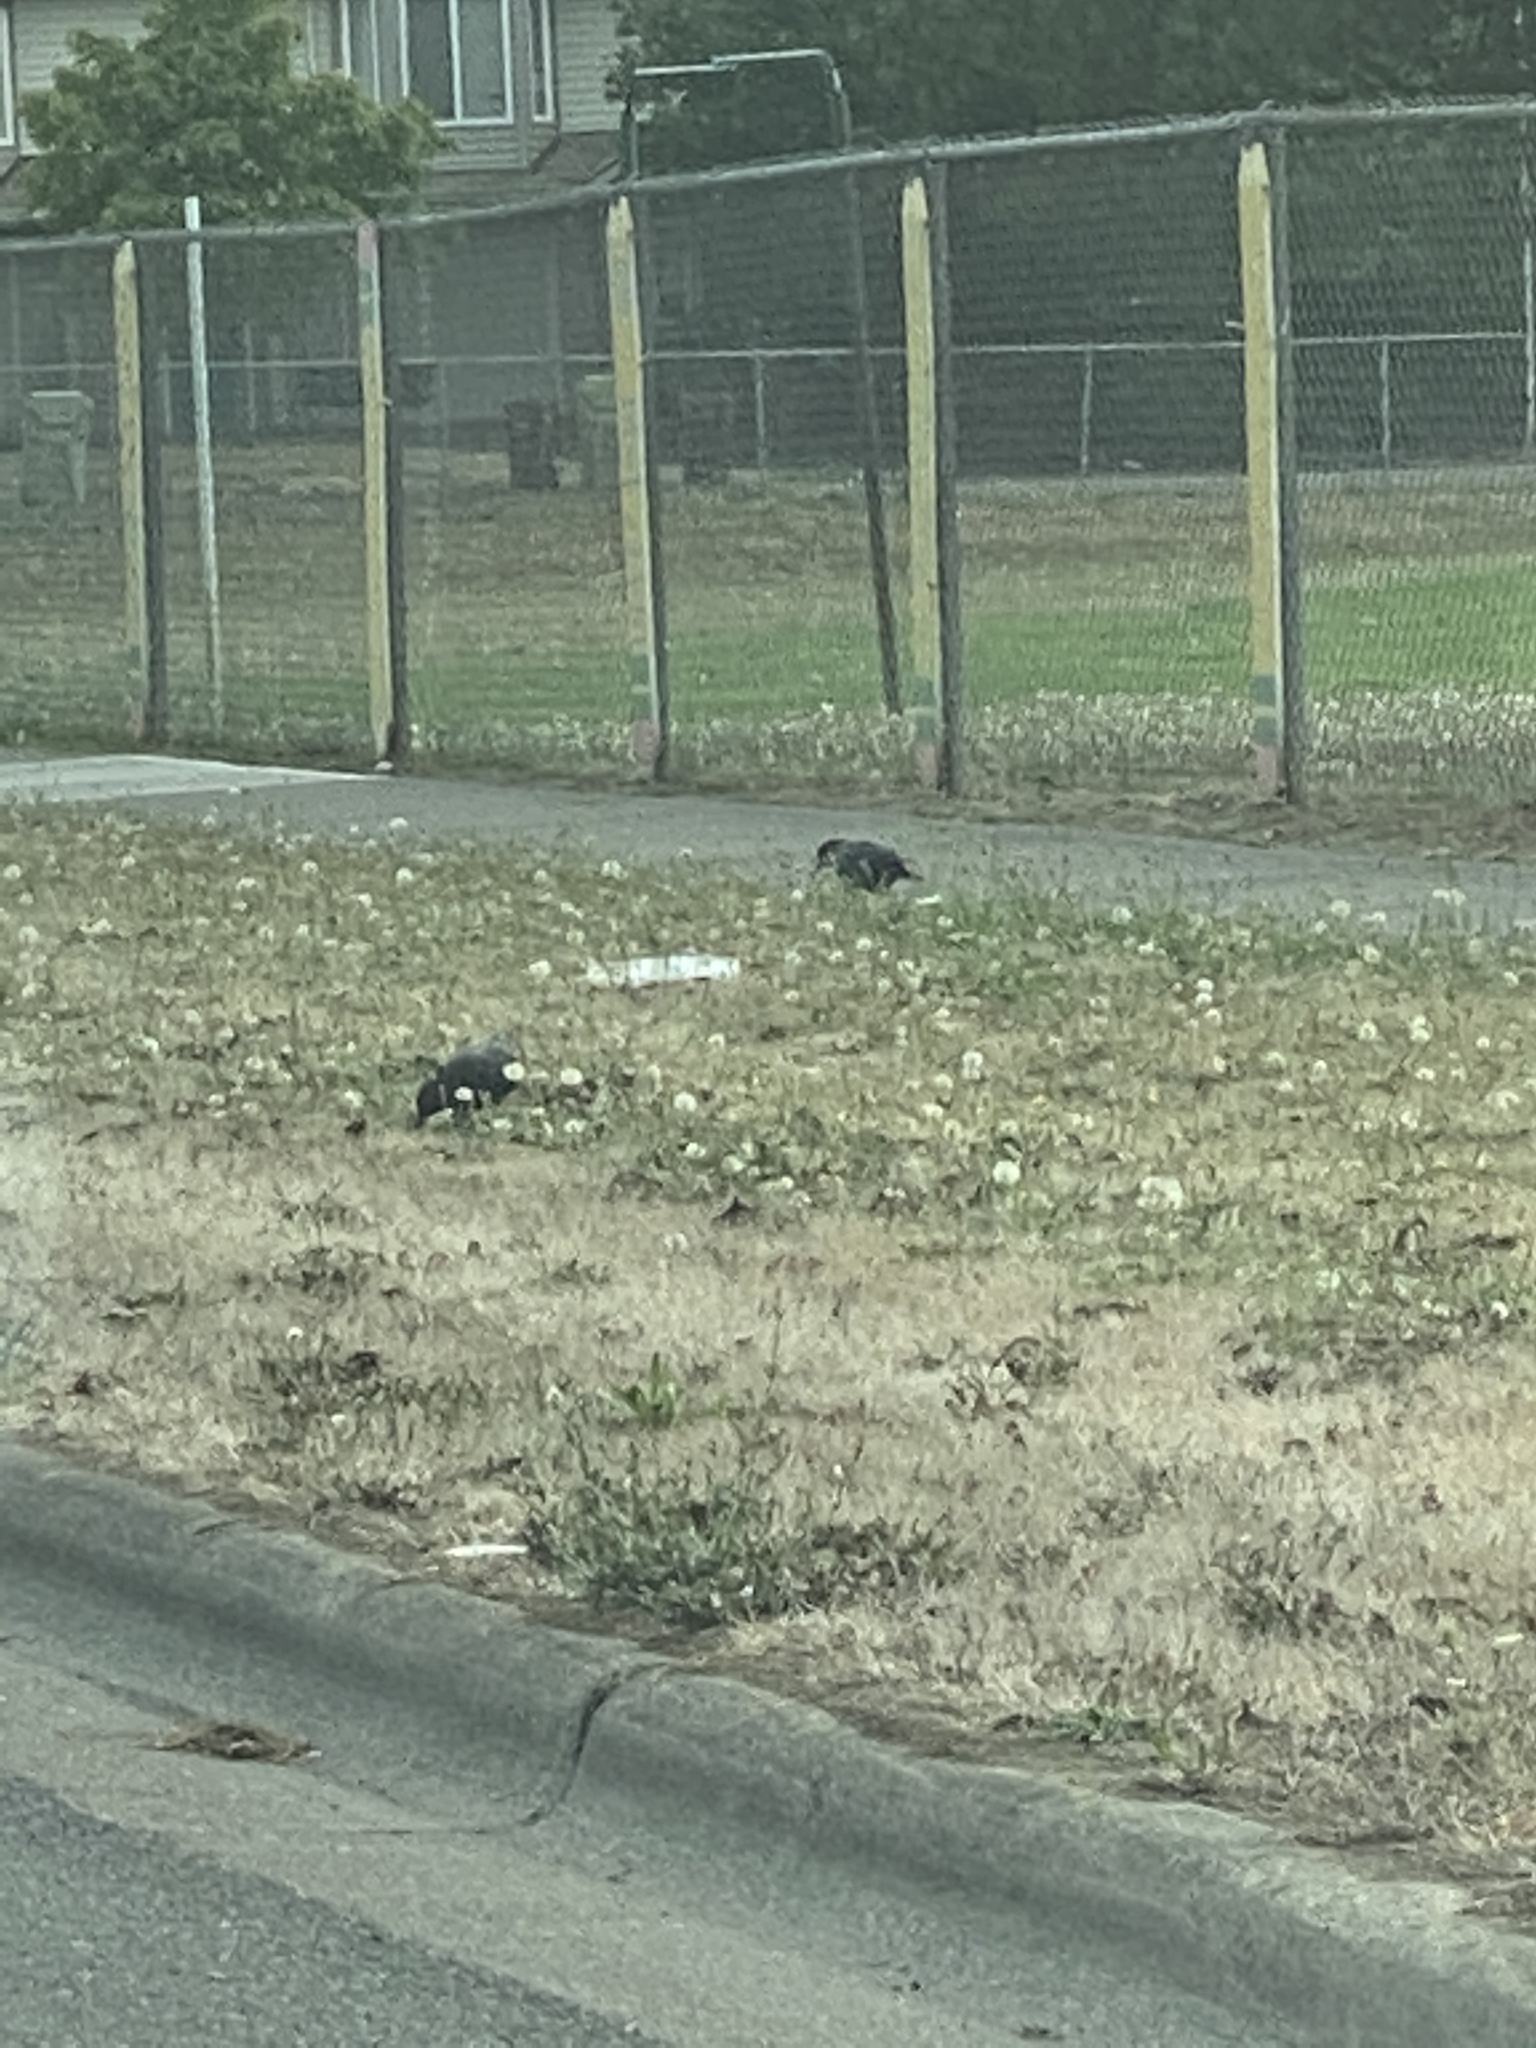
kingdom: Animalia
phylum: Chordata
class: Aves
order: Passeriformes
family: Corvidae
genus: Corvus
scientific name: Corvus brachyrhynchos
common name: American crow
